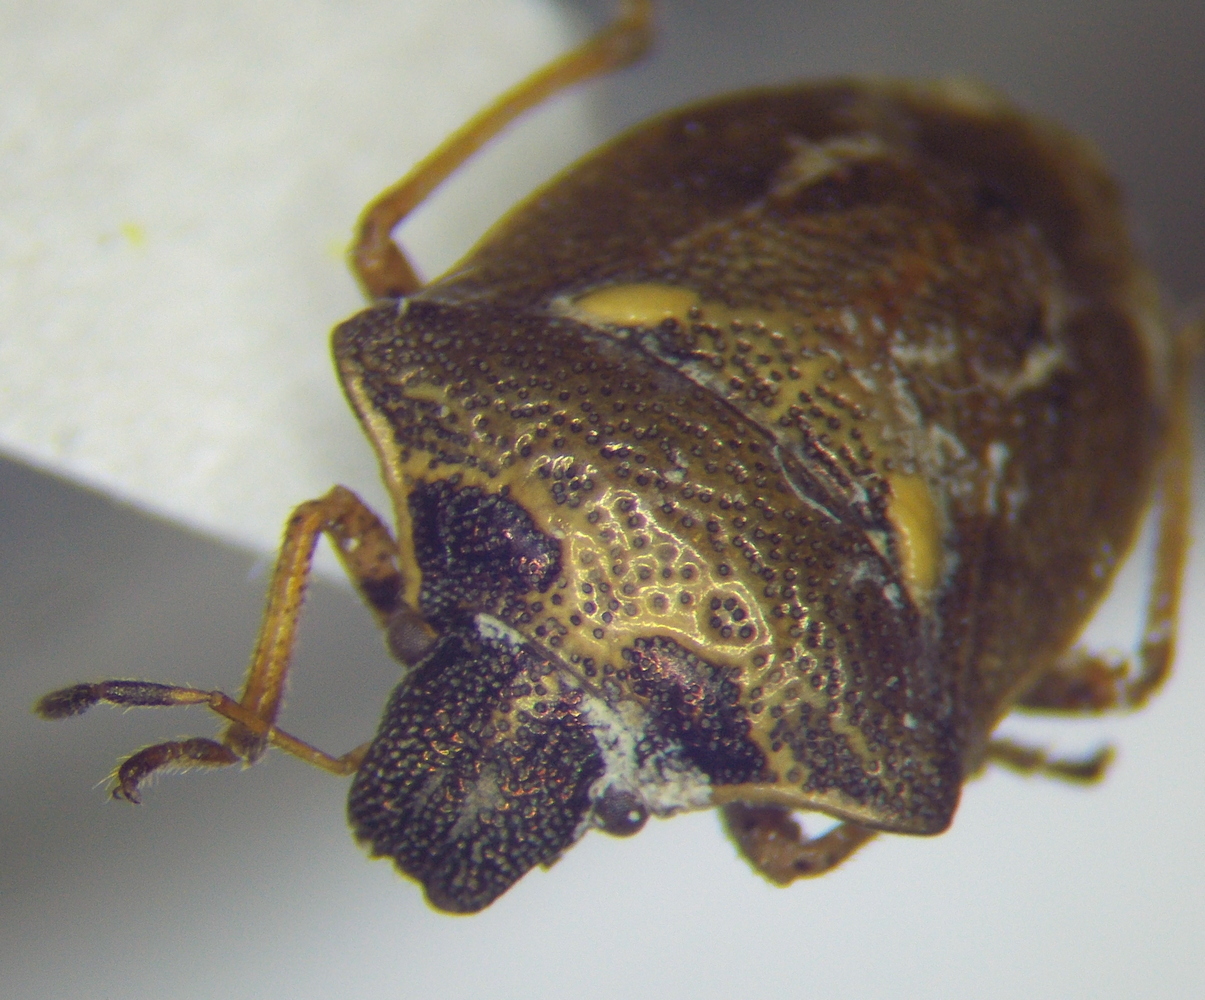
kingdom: Animalia
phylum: Arthropoda
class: Insecta
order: Hemiptera
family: Pentatomidae
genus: Eysarcoris
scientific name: Eysarcoris aeneus
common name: New forest shieldbug
